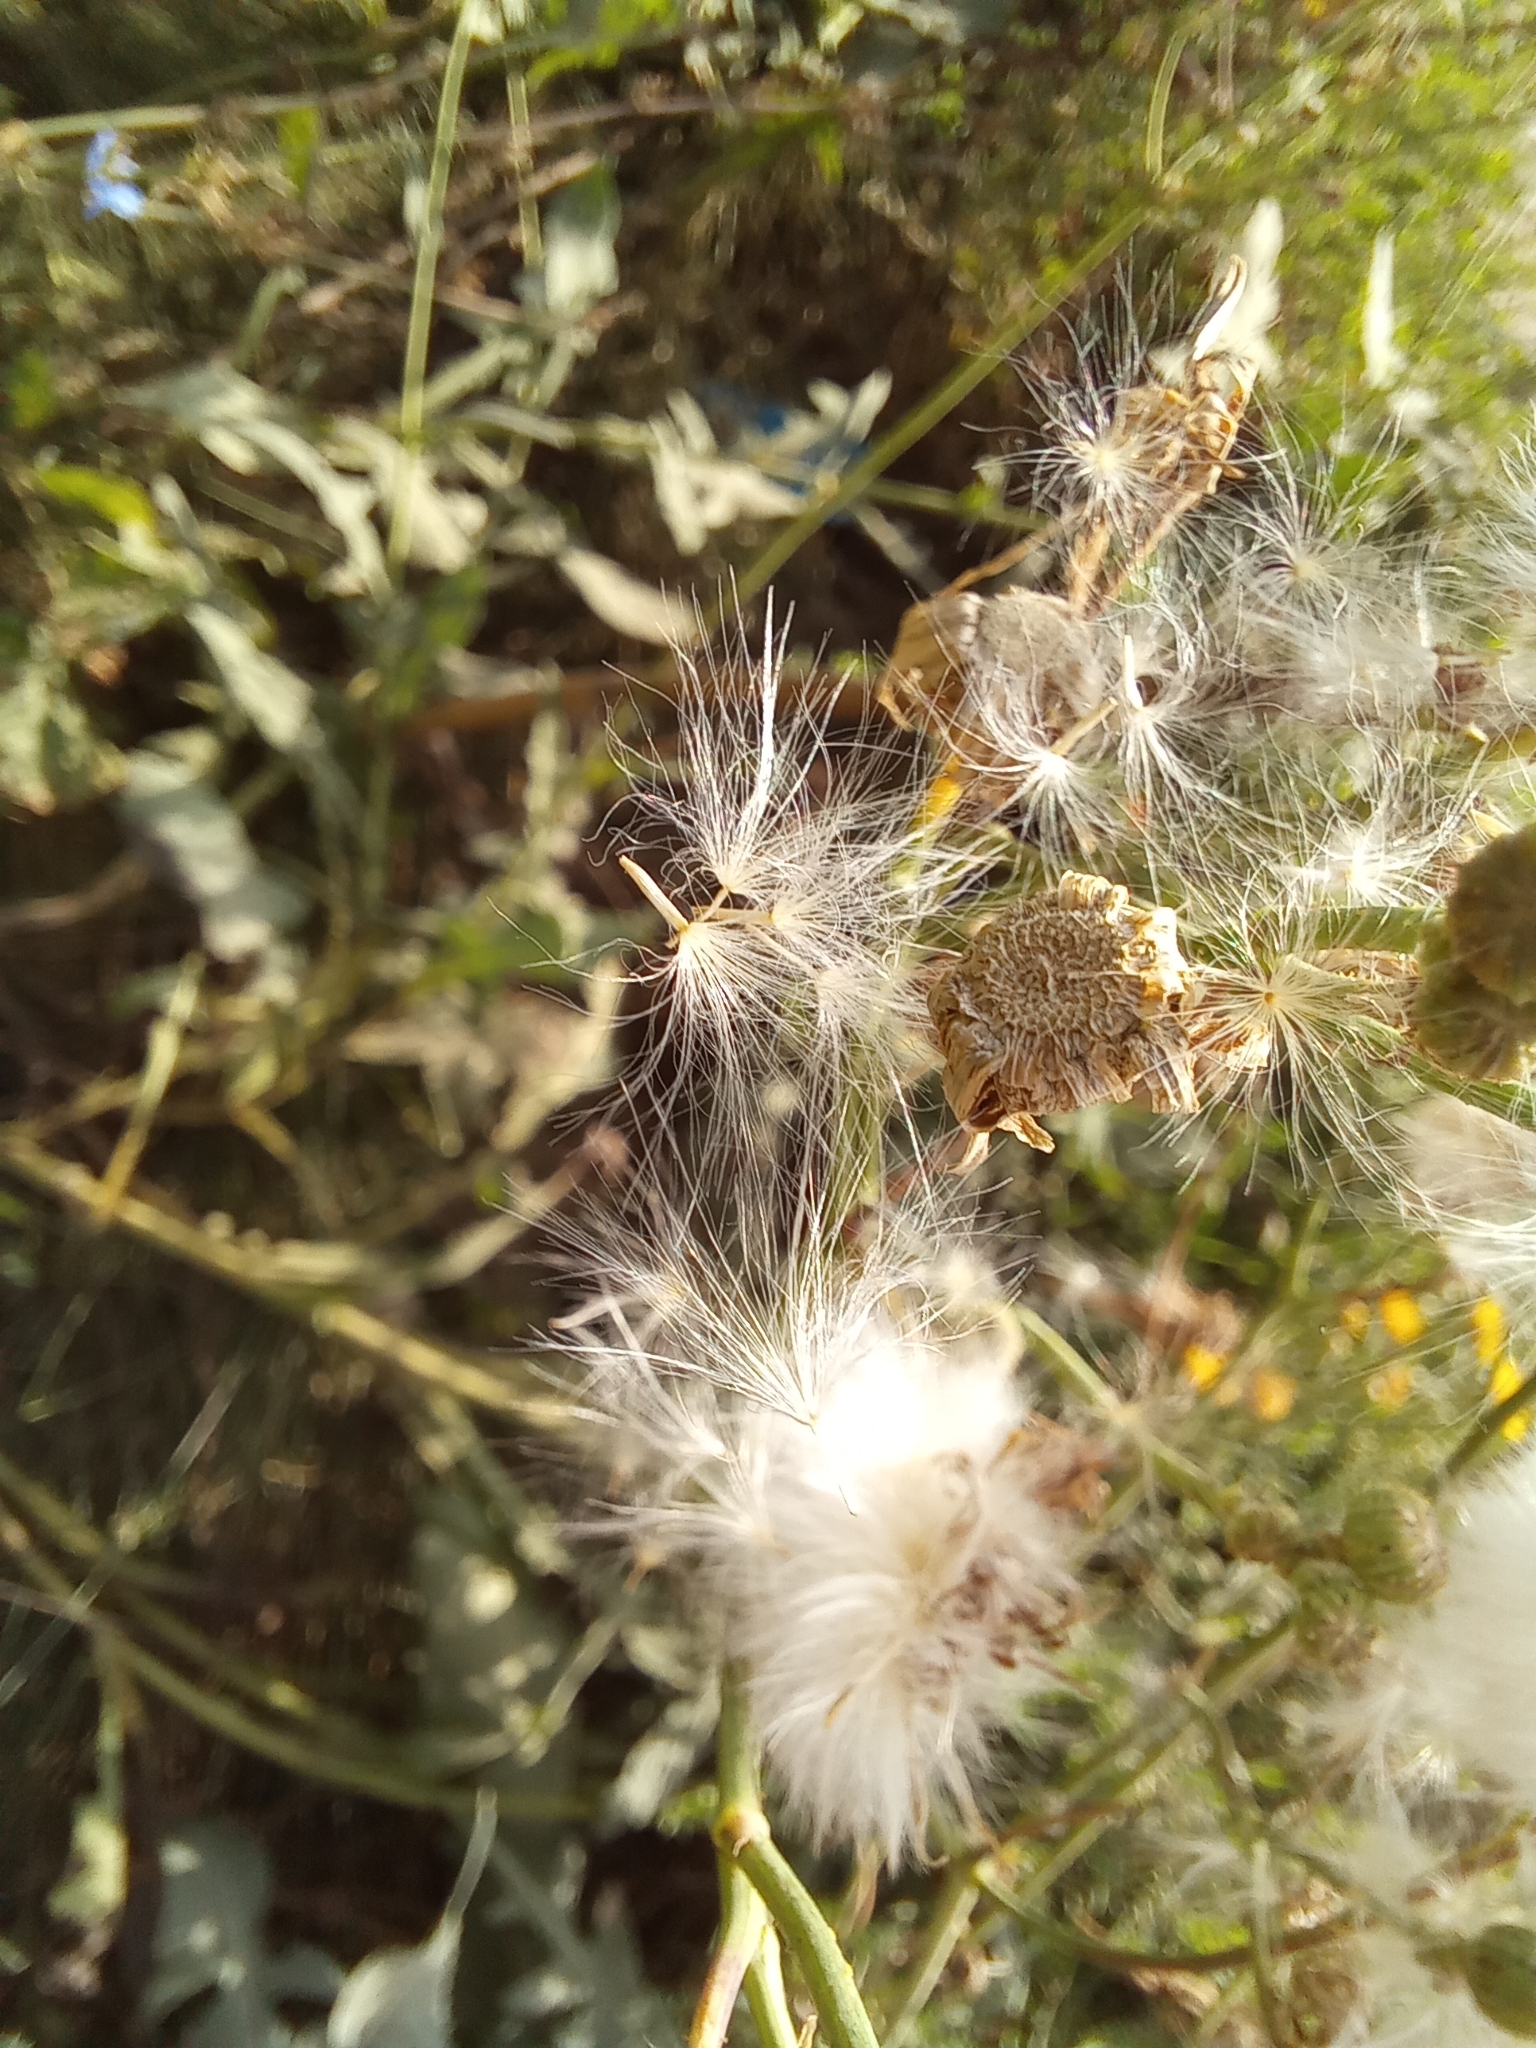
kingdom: Plantae
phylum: Tracheophyta
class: Magnoliopsida
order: Asterales
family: Asteraceae
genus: Sonchus
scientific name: Sonchus arvensis
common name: Perennial sow-thistle
